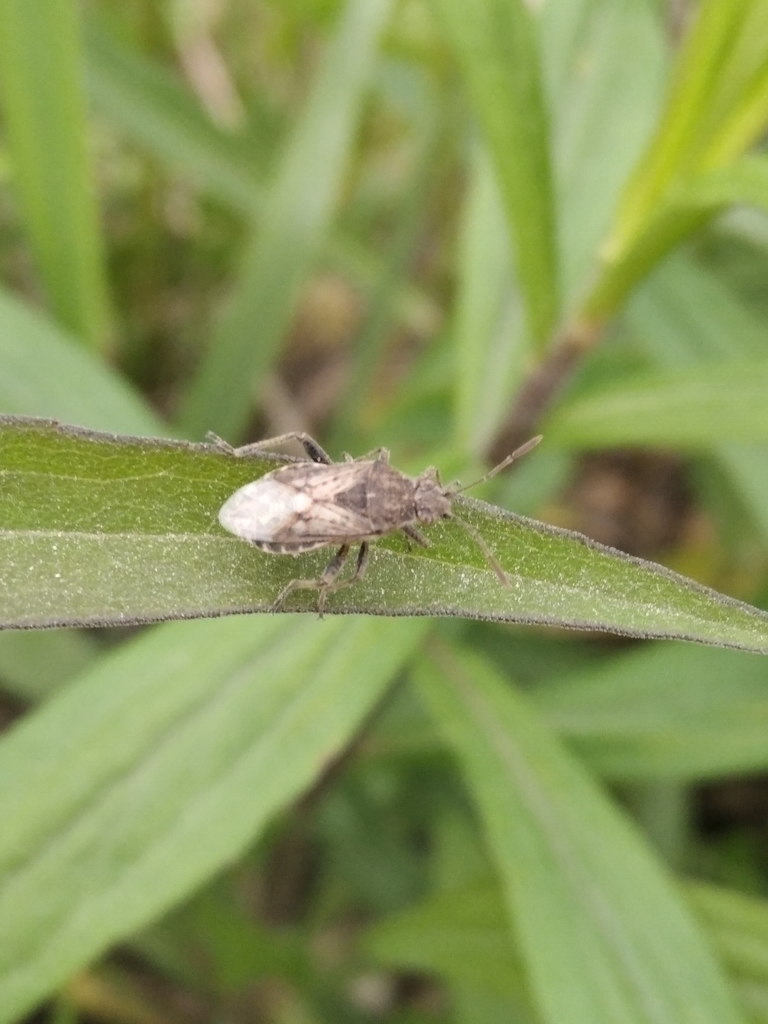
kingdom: Animalia
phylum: Arthropoda
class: Insecta
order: Hemiptera
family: Rhopalidae
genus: Stictopleurus
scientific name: Stictopleurus punctatonervosus
